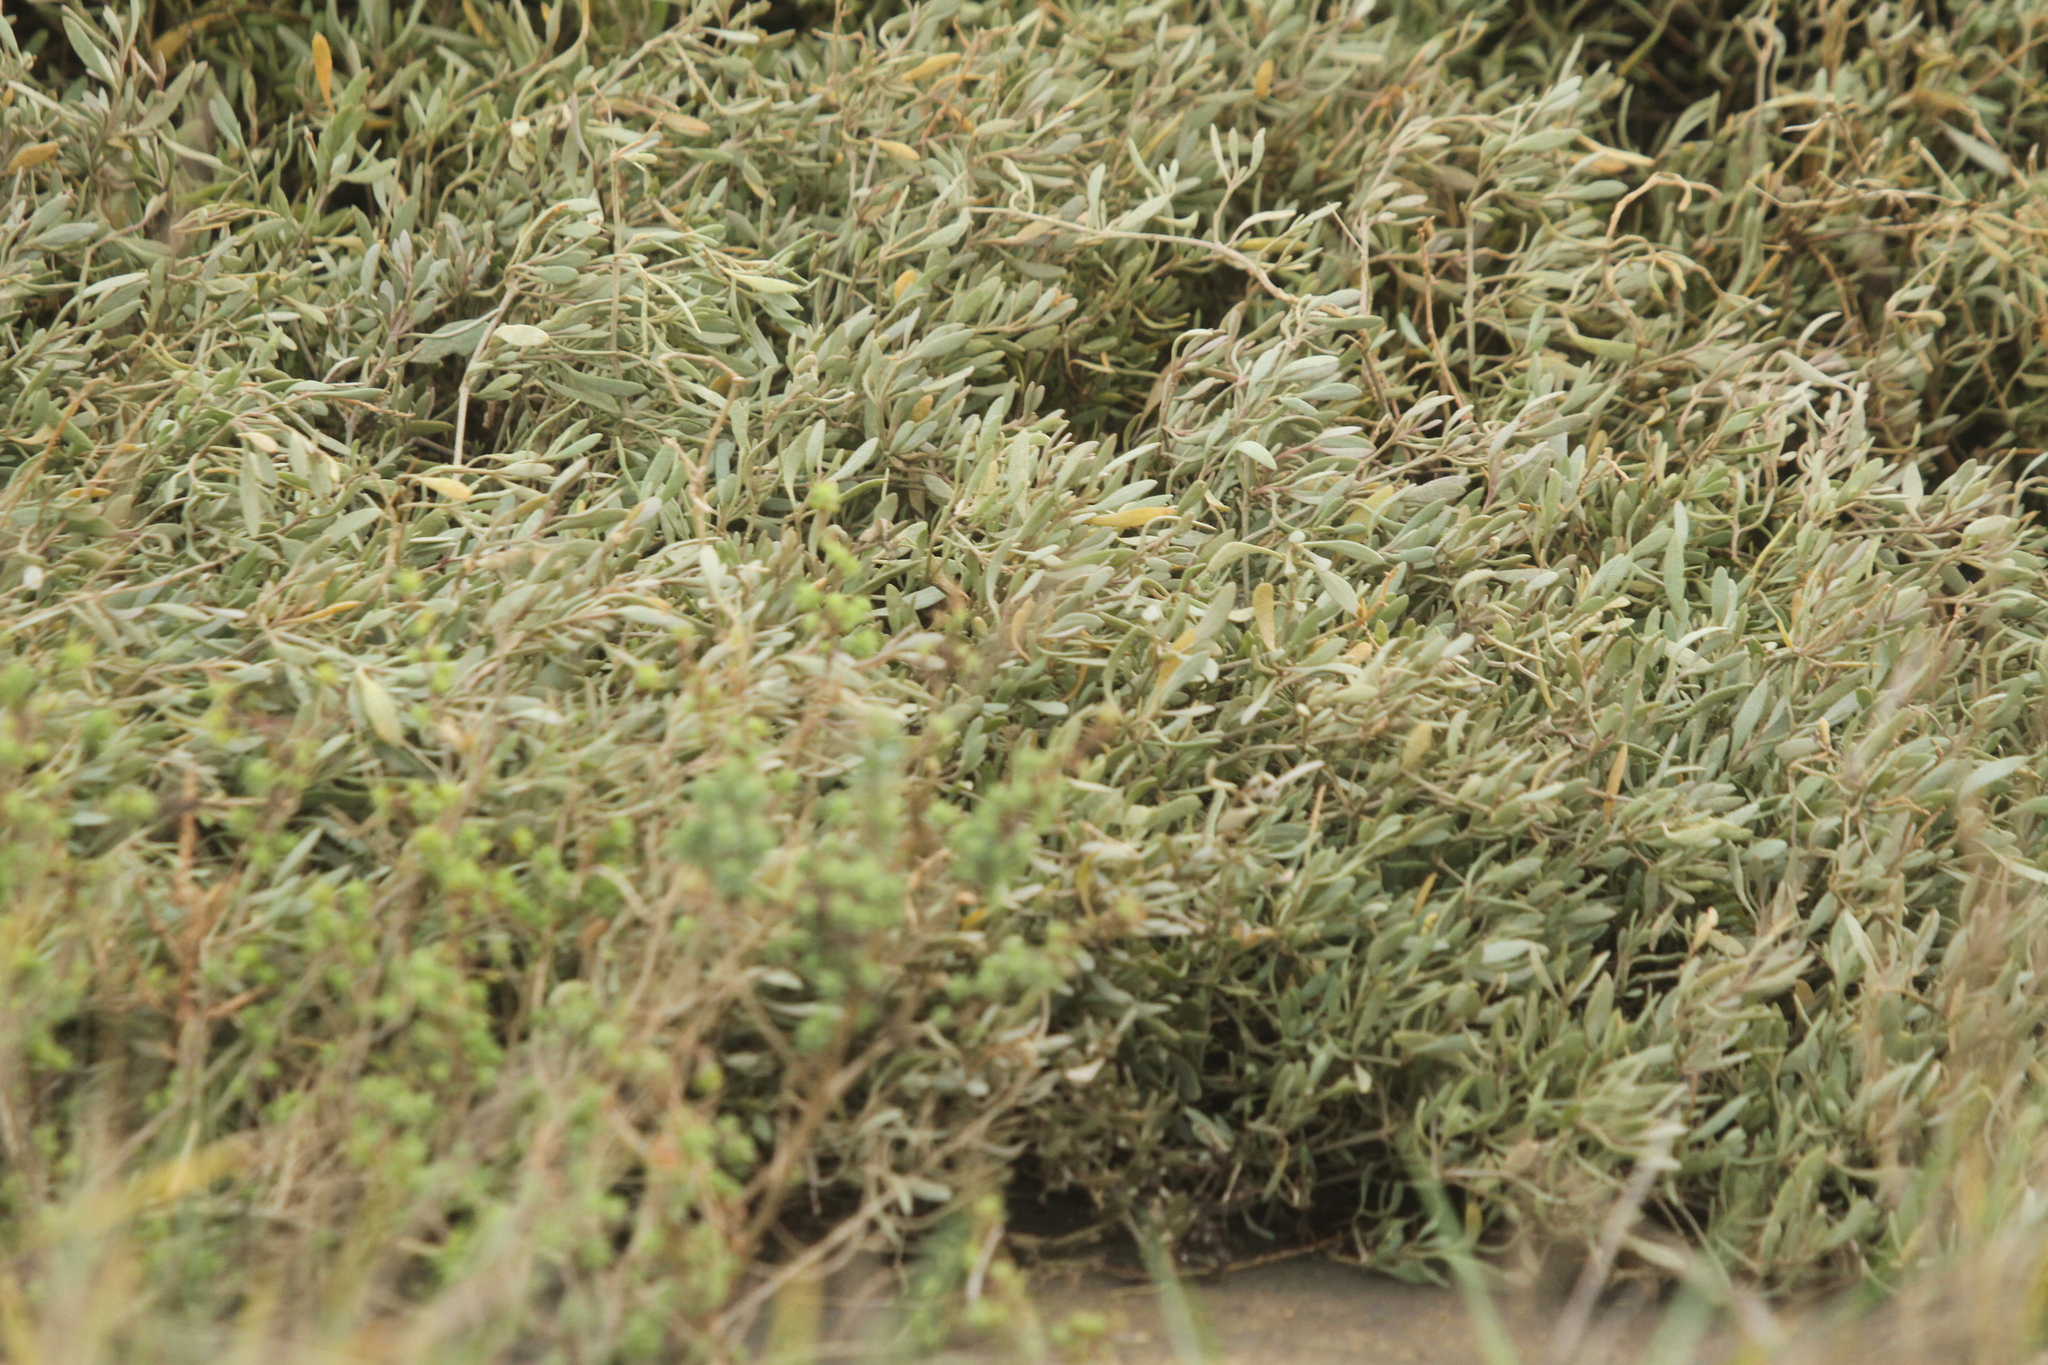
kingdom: Plantae
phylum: Tracheophyta
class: Magnoliopsida
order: Caryophyllales
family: Amaranthaceae
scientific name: Amaranthaceae
